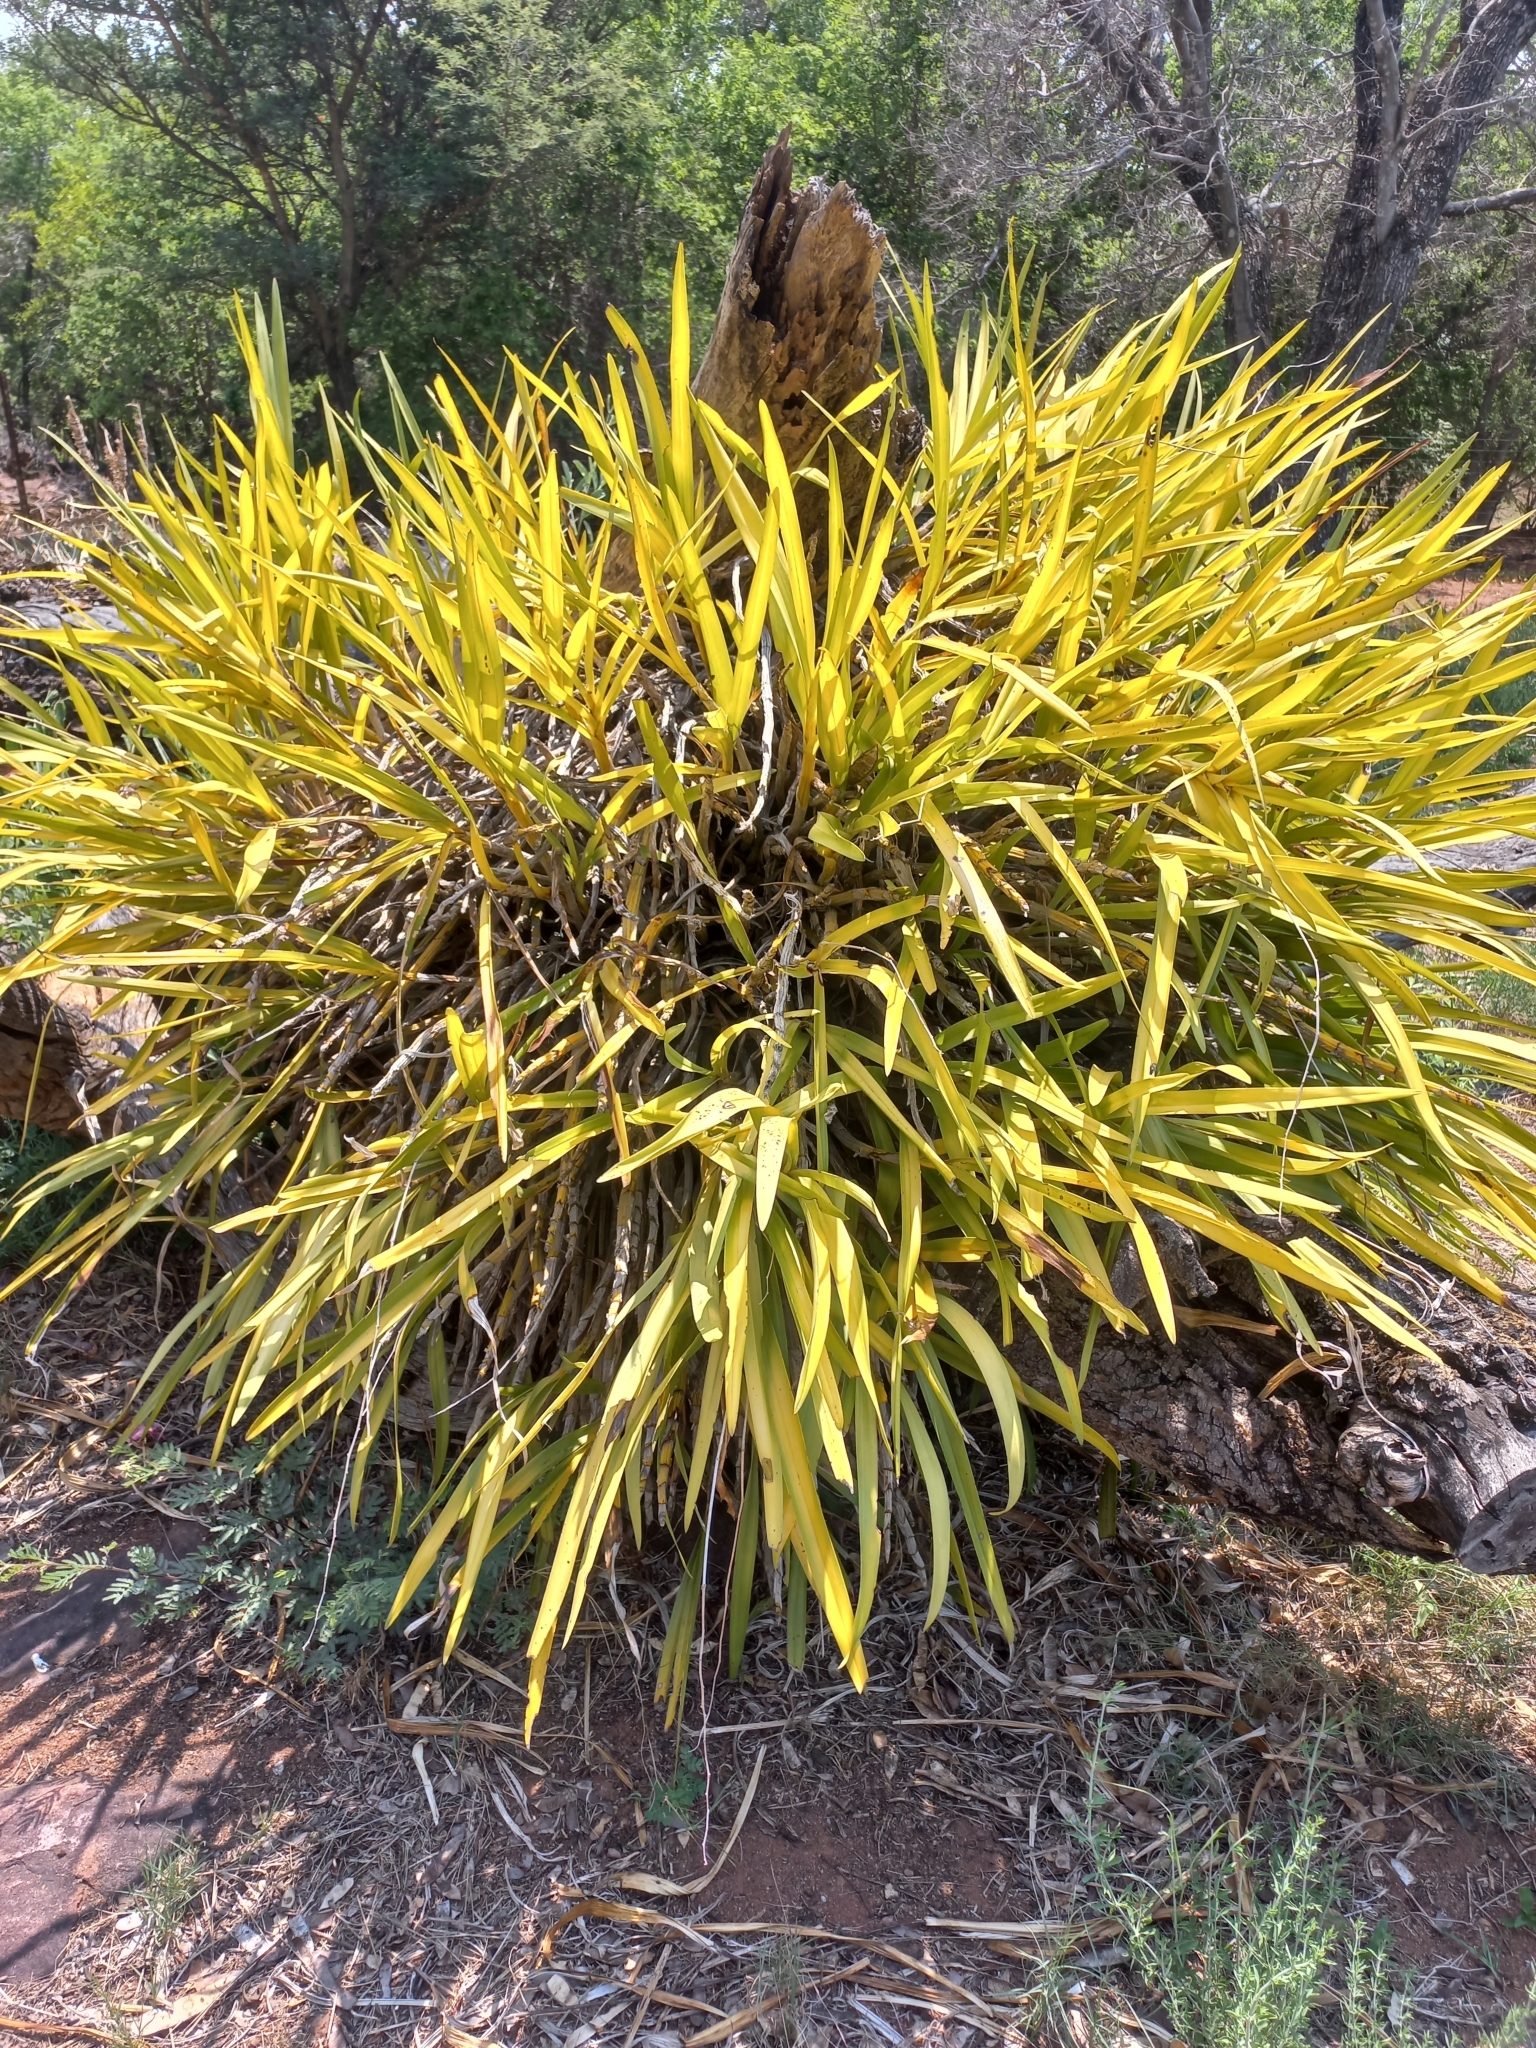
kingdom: Plantae
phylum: Tracheophyta
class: Liliopsida
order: Asparagales
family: Orchidaceae
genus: Ansellia
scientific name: Ansellia africana
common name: African ansellia
